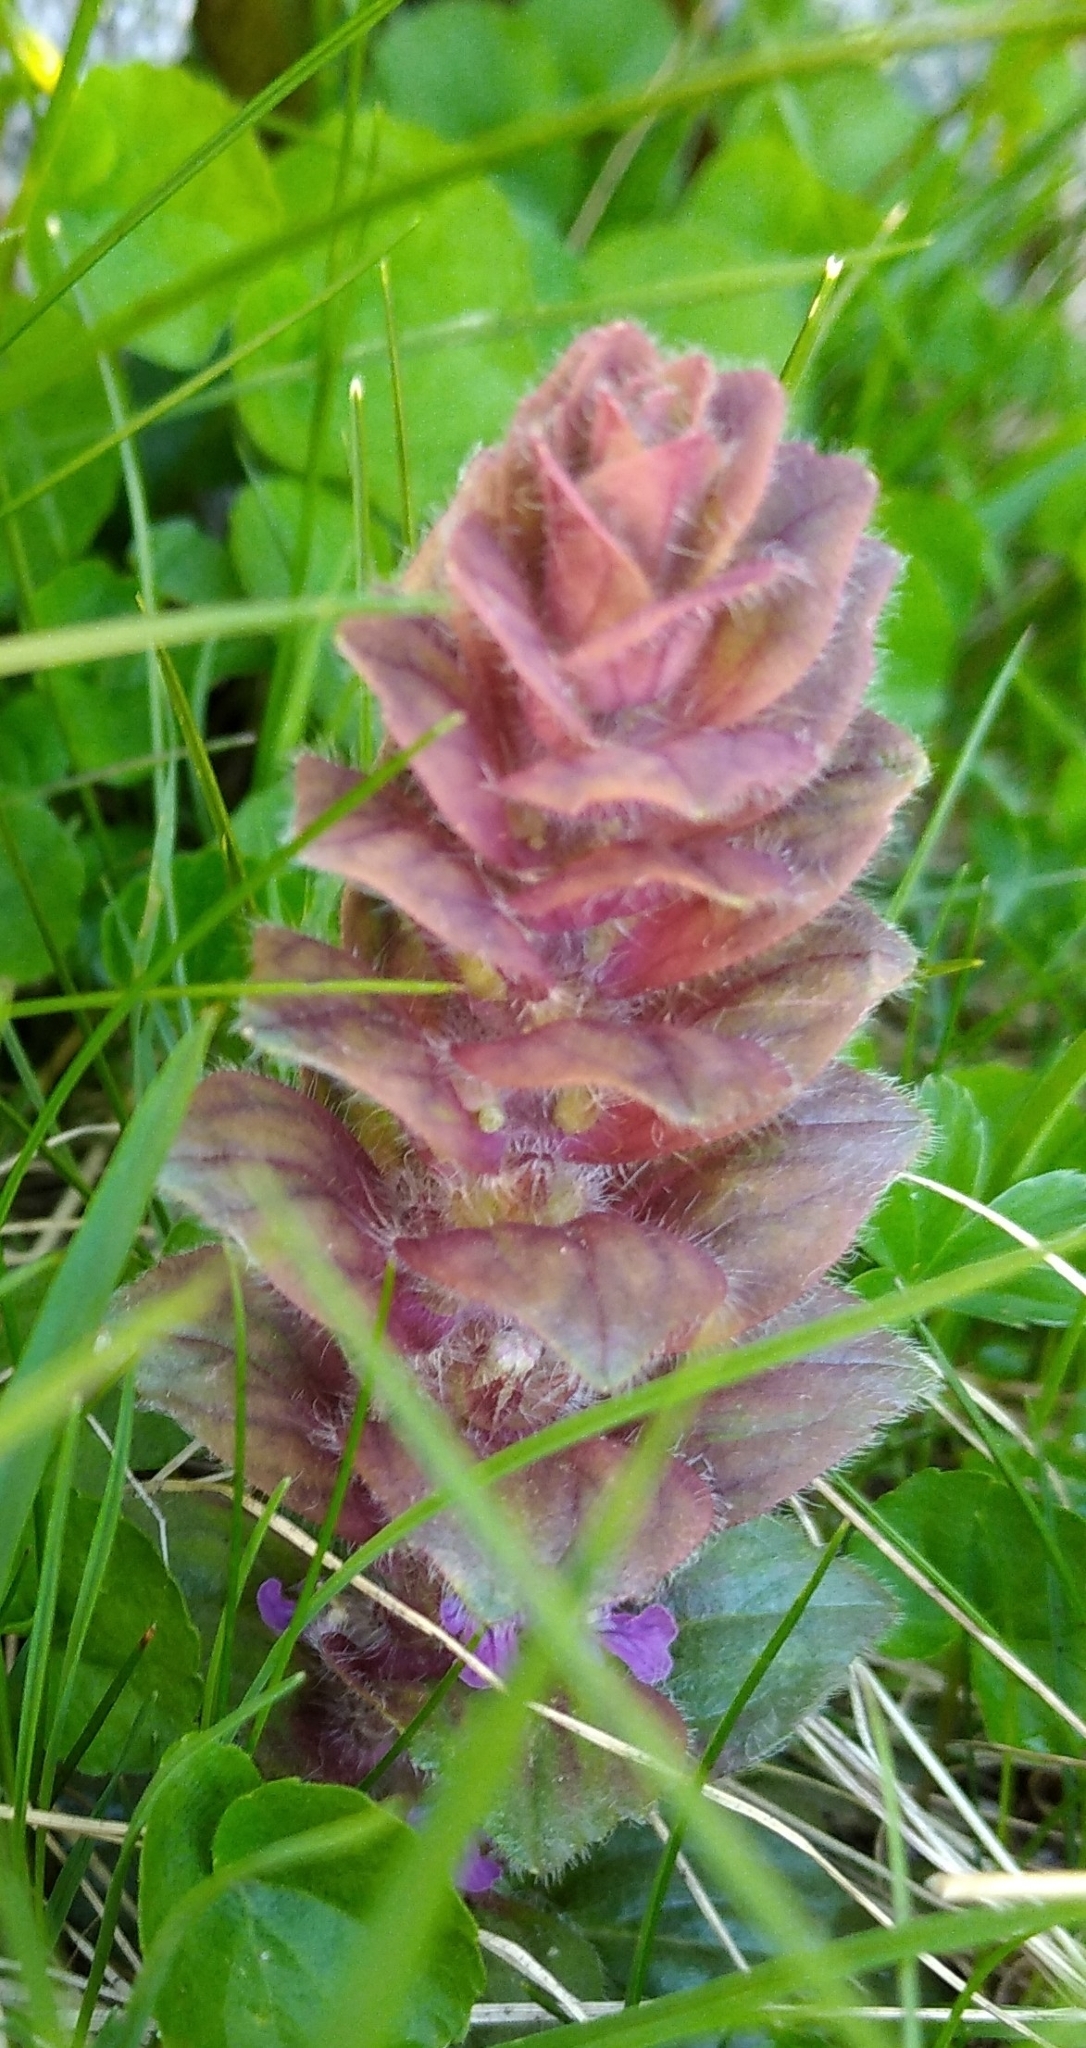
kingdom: Plantae
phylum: Tracheophyta
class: Magnoliopsida
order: Lamiales
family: Lamiaceae
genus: Ajuga
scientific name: Ajuga pyramidalis
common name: Pyramid bugle
